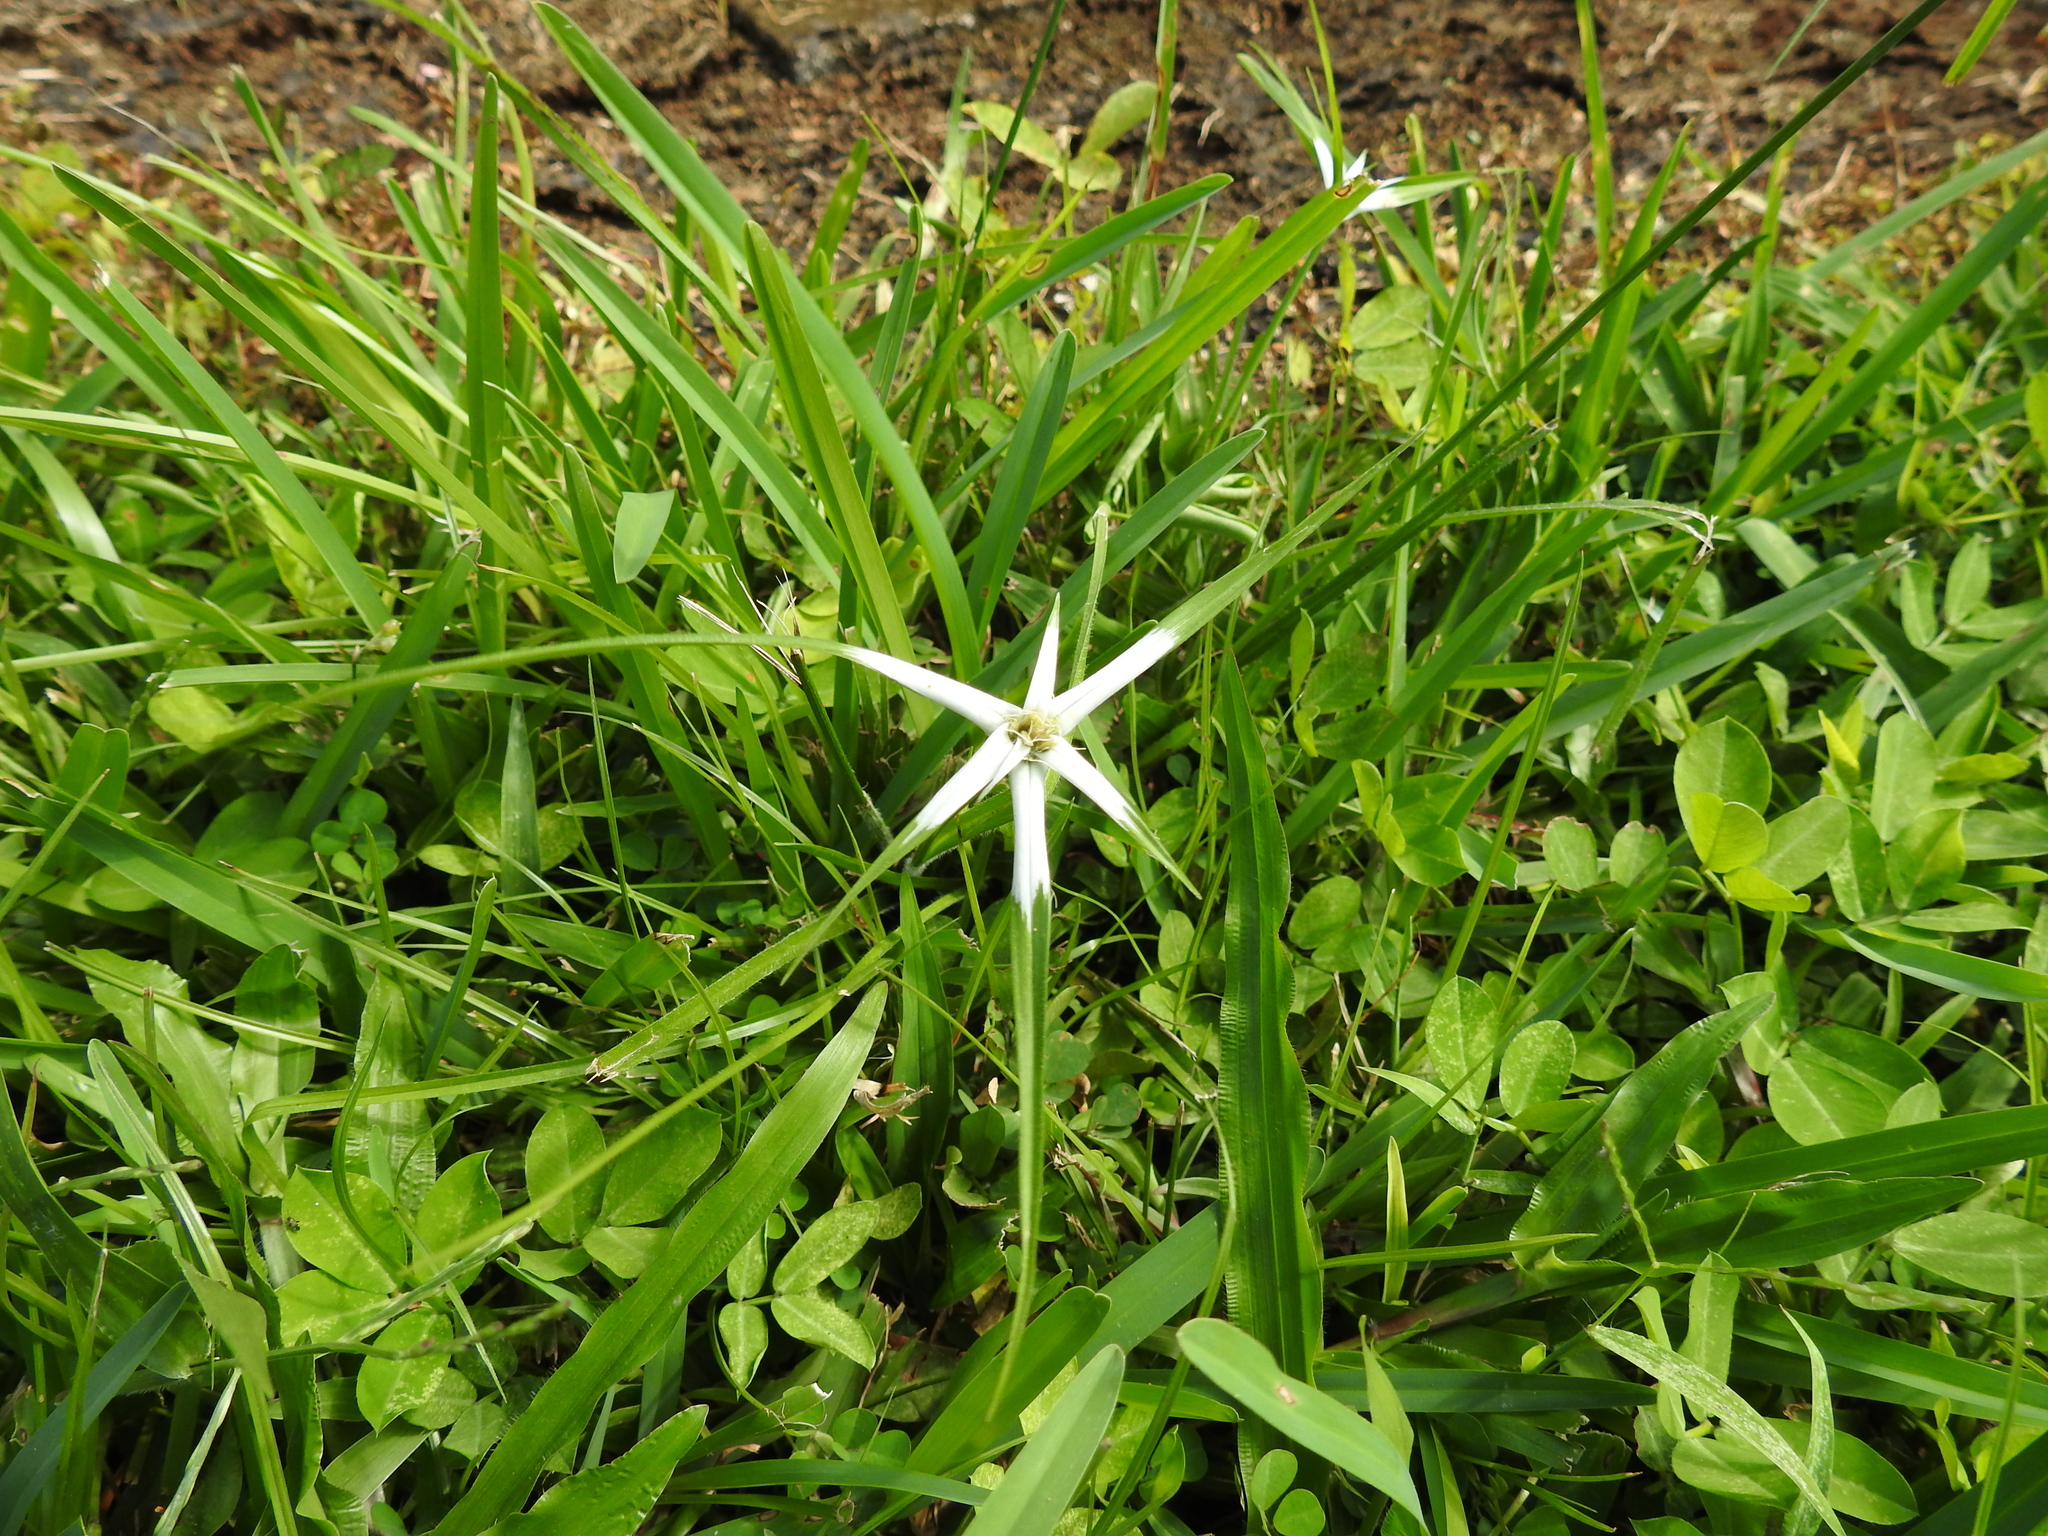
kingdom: Plantae
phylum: Tracheophyta
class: Liliopsida
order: Poales
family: Cyperaceae
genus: Rhynchospora
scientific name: Rhynchospora nervosa
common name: Star sedge
